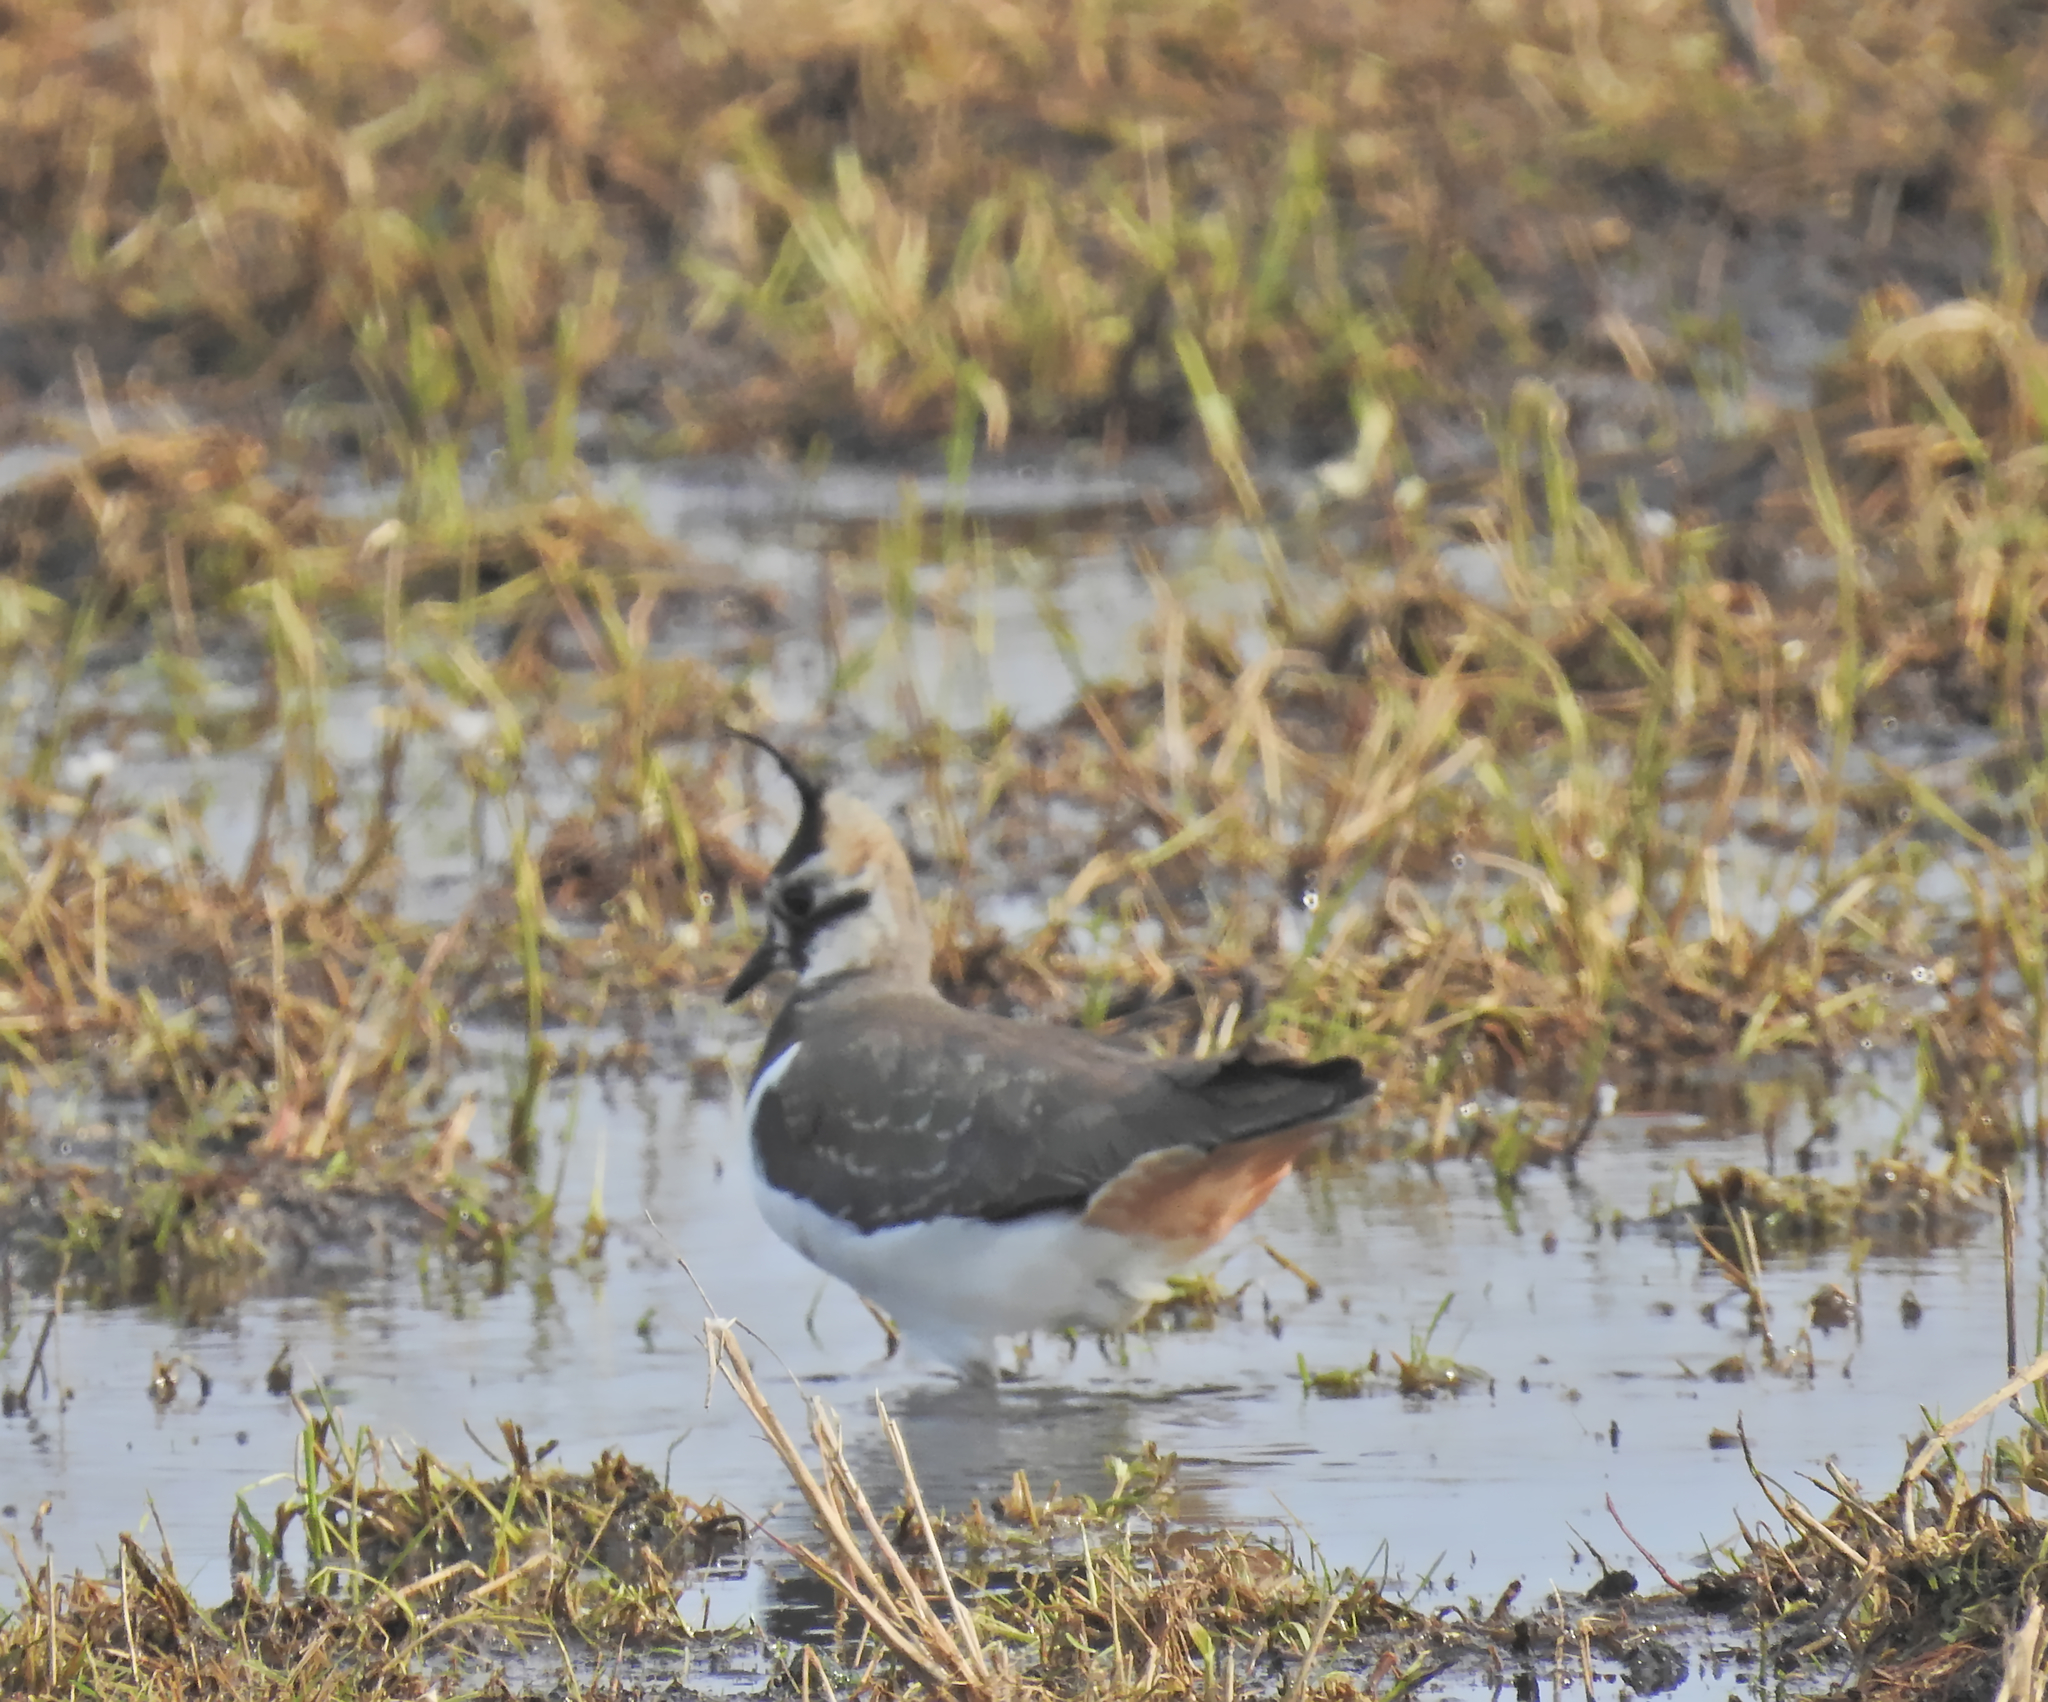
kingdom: Animalia
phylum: Chordata
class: Aves
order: Charadriiformes
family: Charadriidae
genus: Vanellus
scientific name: Vanellus vanellus
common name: Northern lapwing
